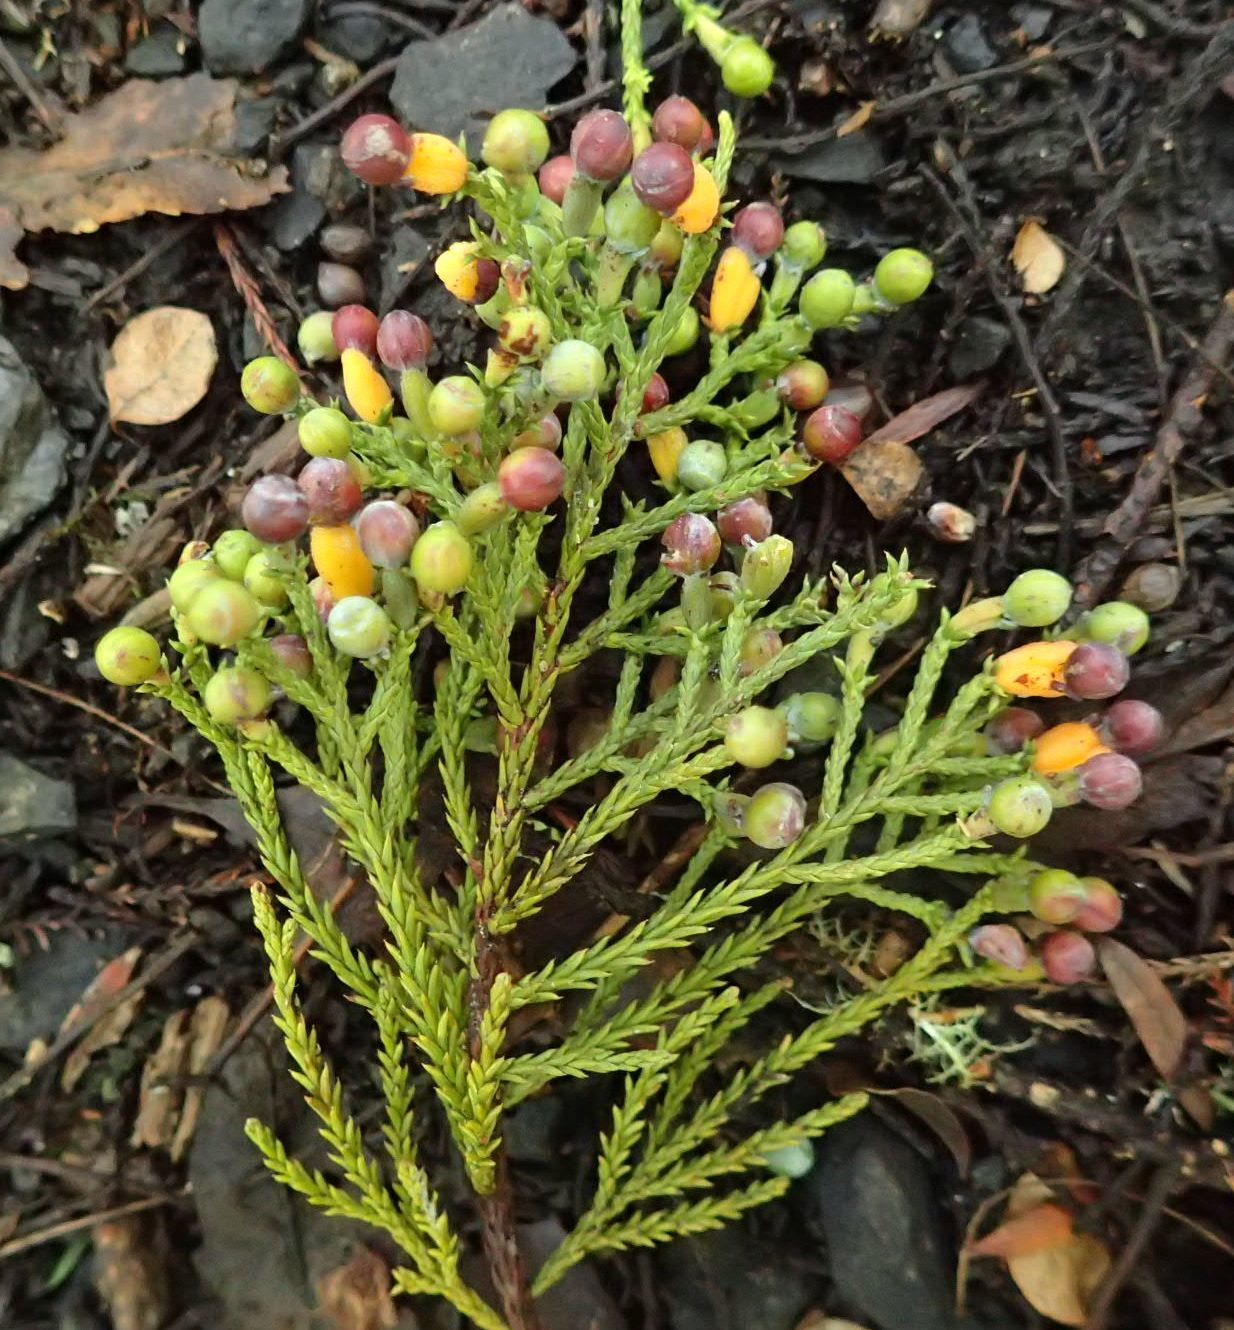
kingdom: Plantae
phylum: Tracheophyta
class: Pinopsida
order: Pinales
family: Podocarpaceae
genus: Dacrycarpus
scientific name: Dacrycarpus dacrydioides
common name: White pine
